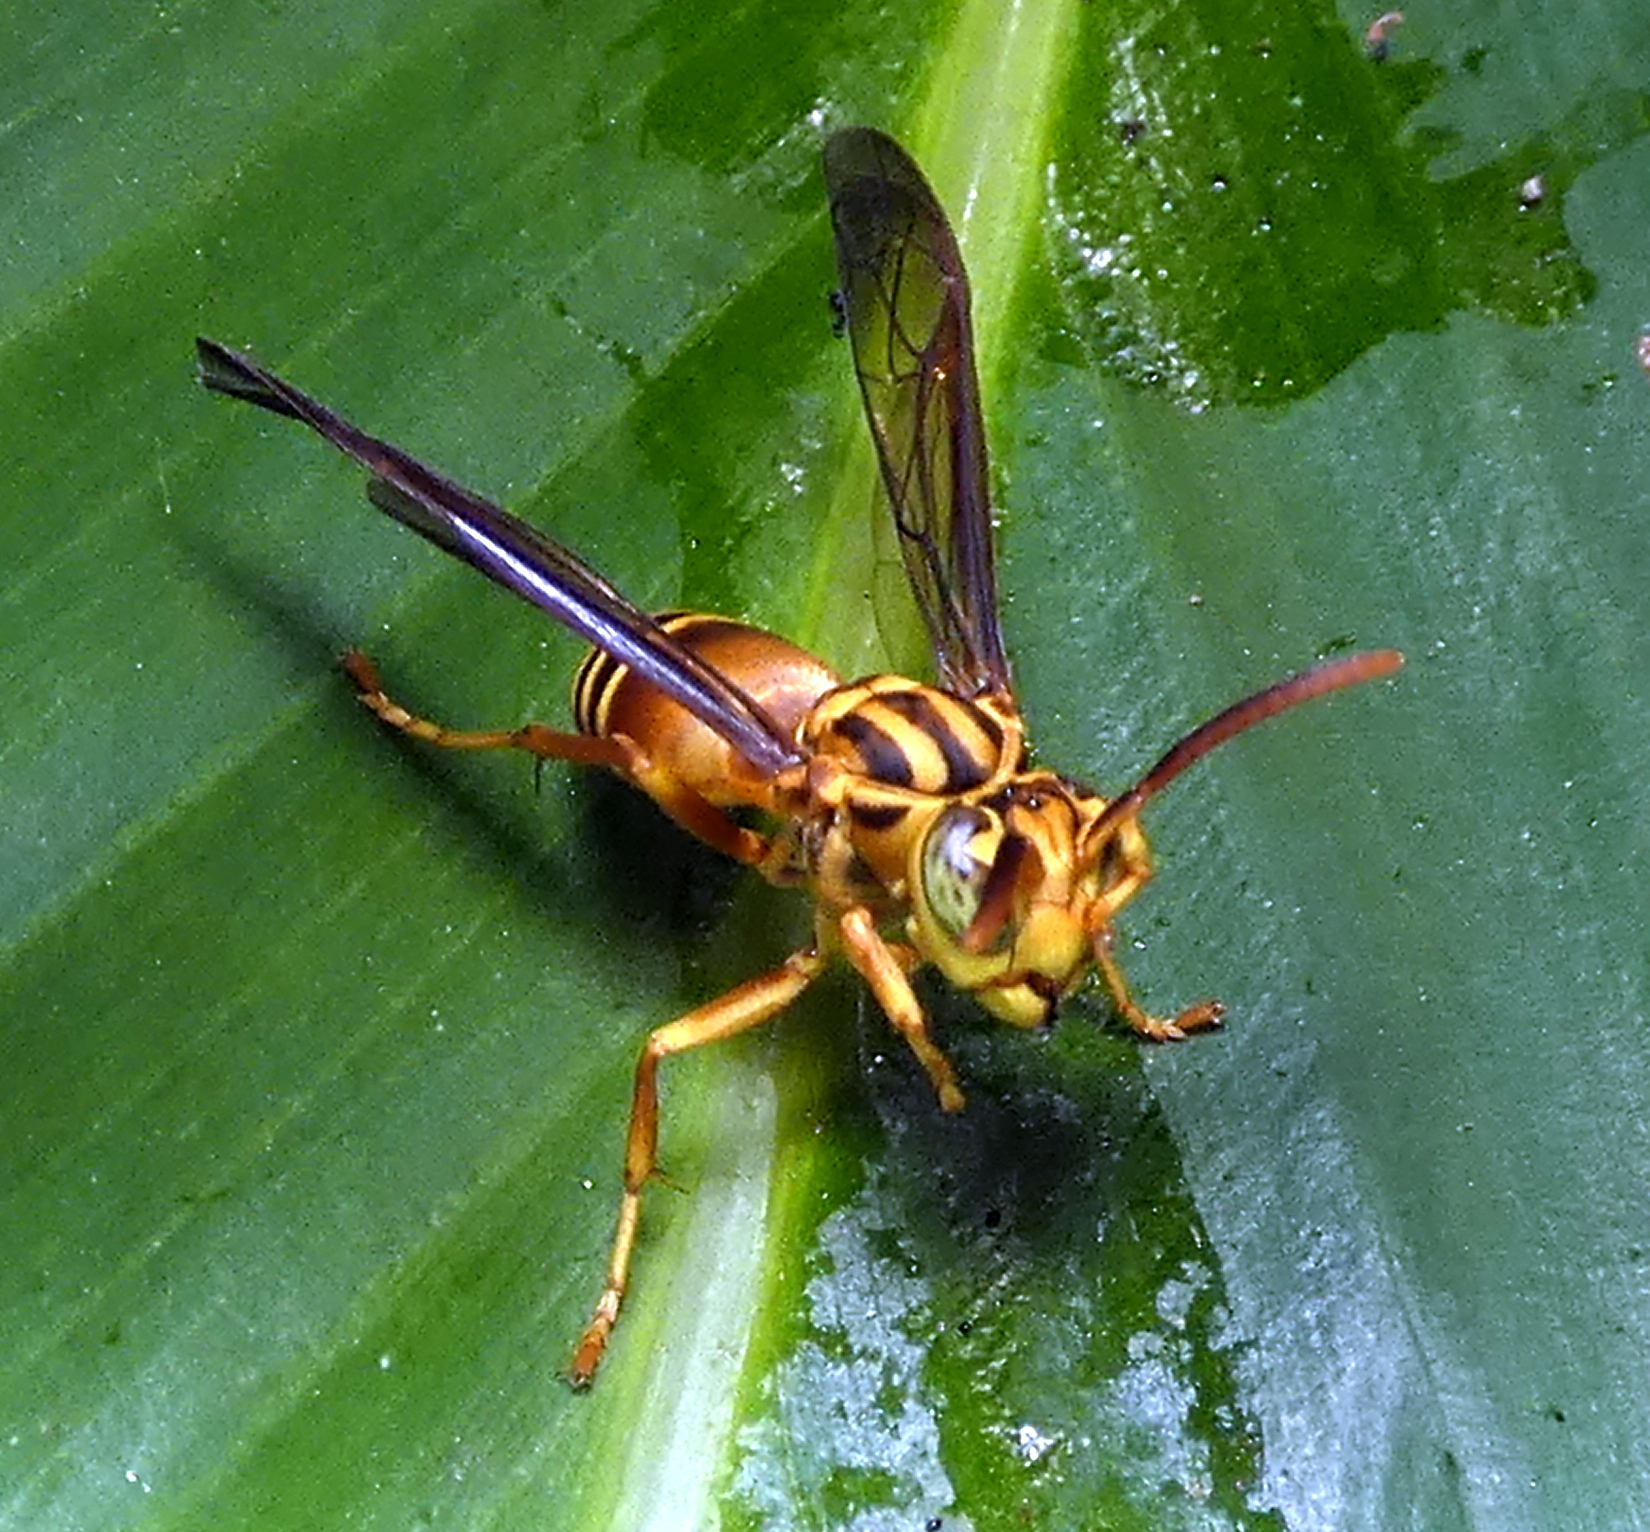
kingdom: Animalia
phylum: Arthropoda
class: Insecta
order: Hymenoptera
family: Vespidae
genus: Parachartergus
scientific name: Parachartergus vespiceps
